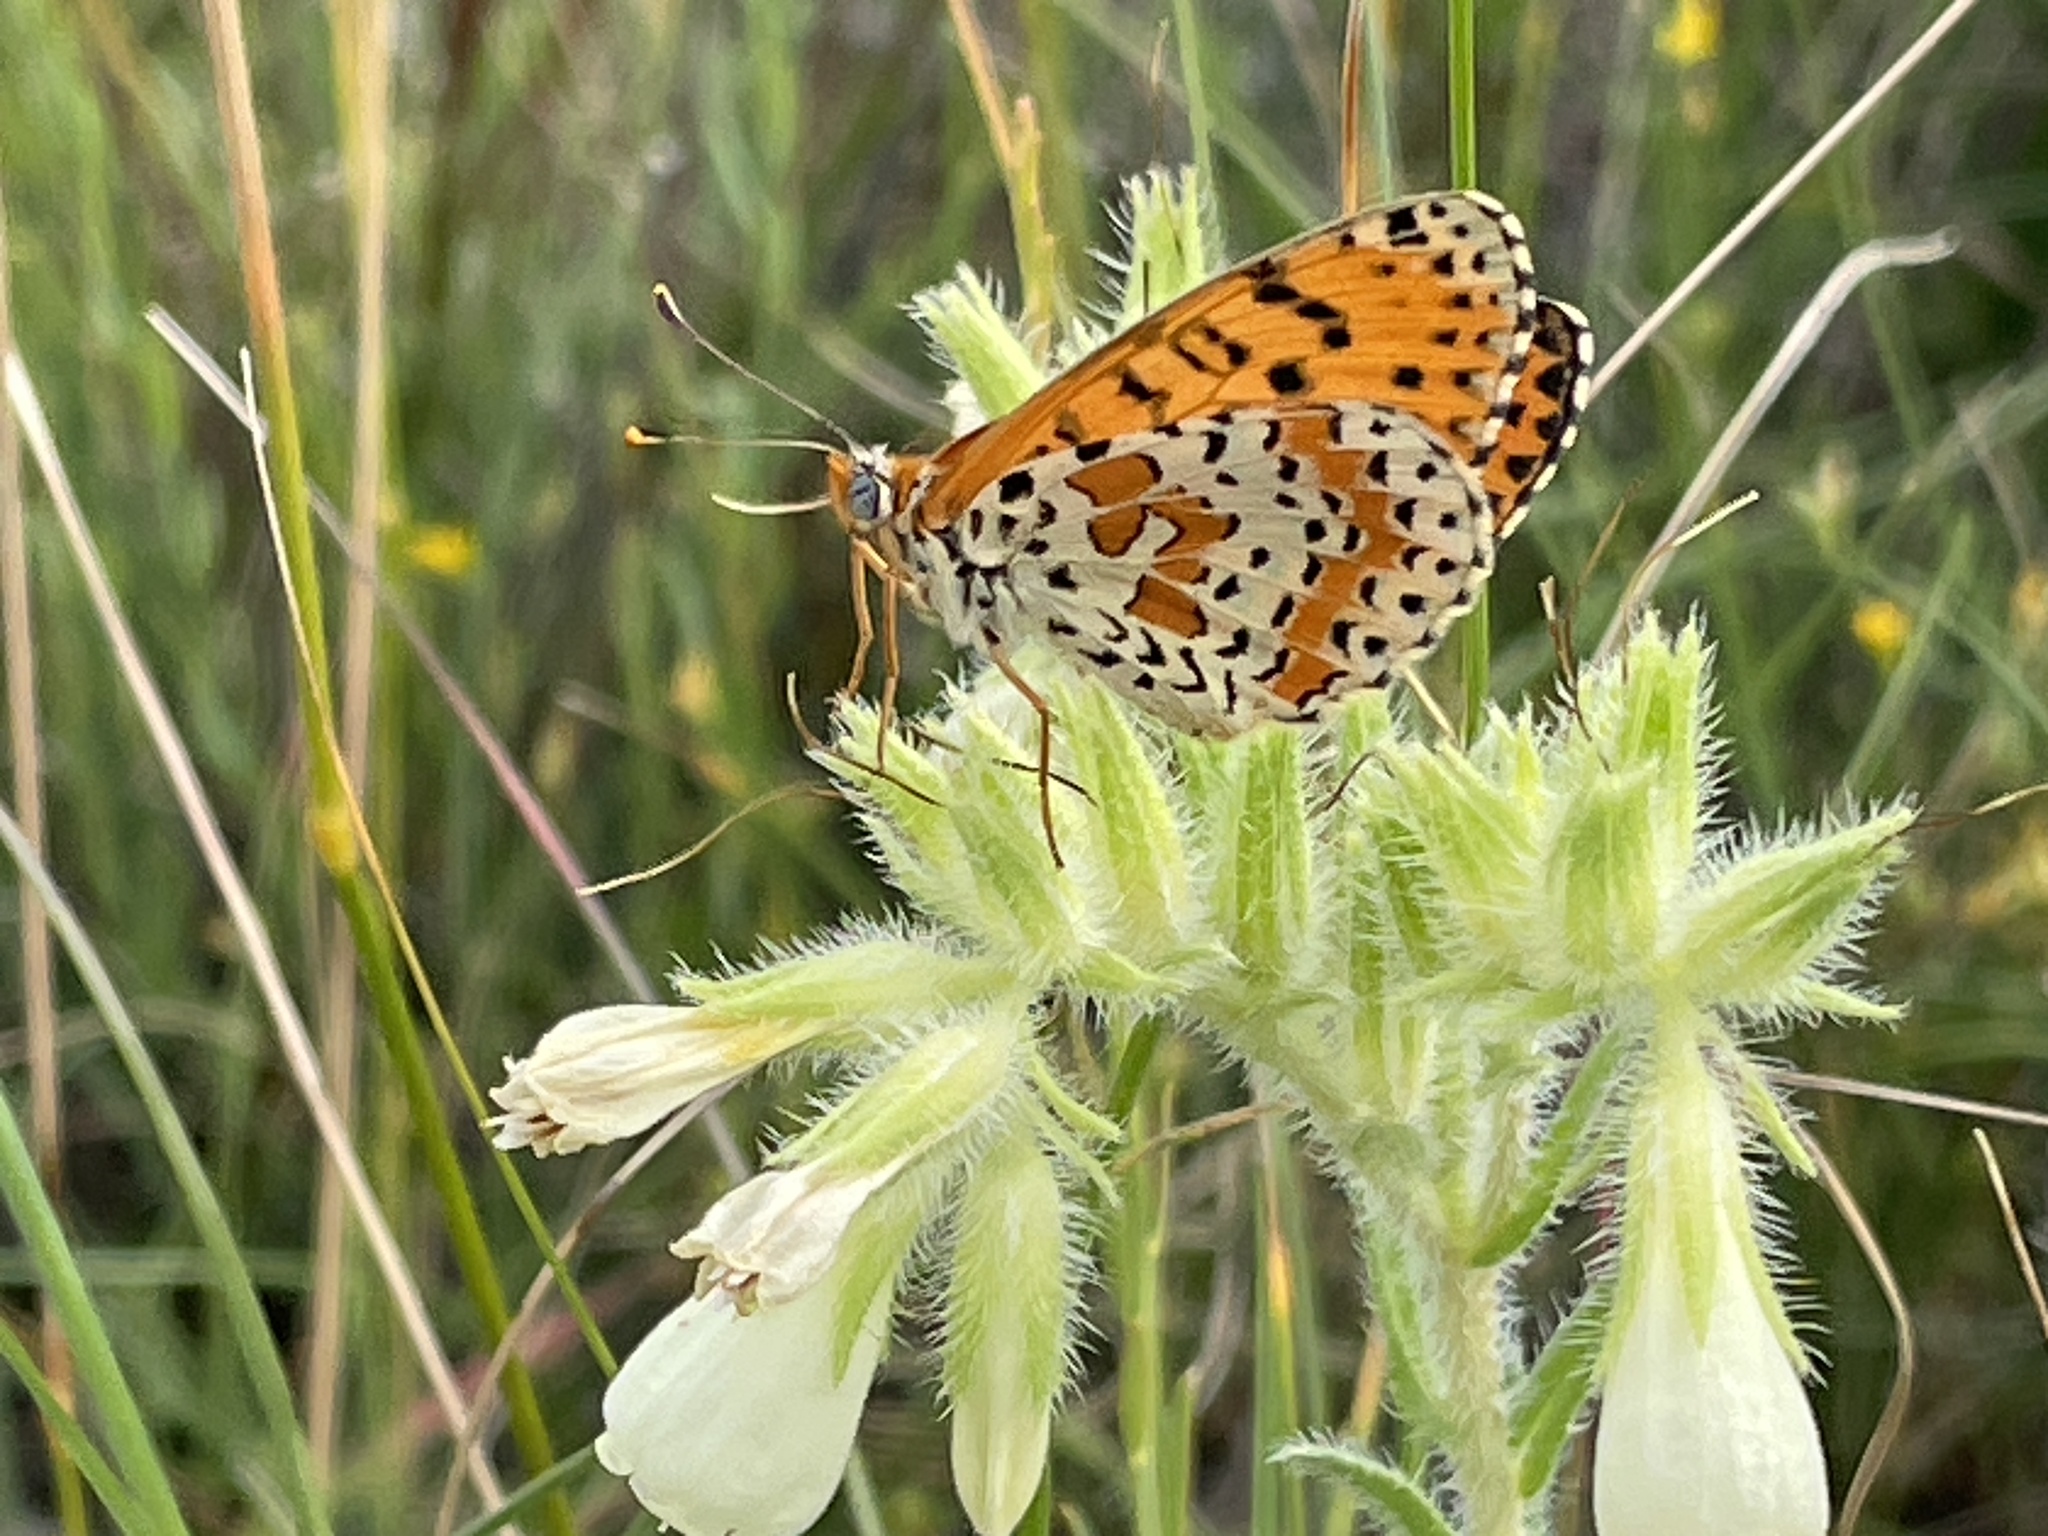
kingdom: Animalia
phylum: Arthropoda
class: Insecta
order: Lepidoptera
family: Nymphalidae
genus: Melitaea
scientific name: Melitaea didyma
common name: Spotted fritillary
